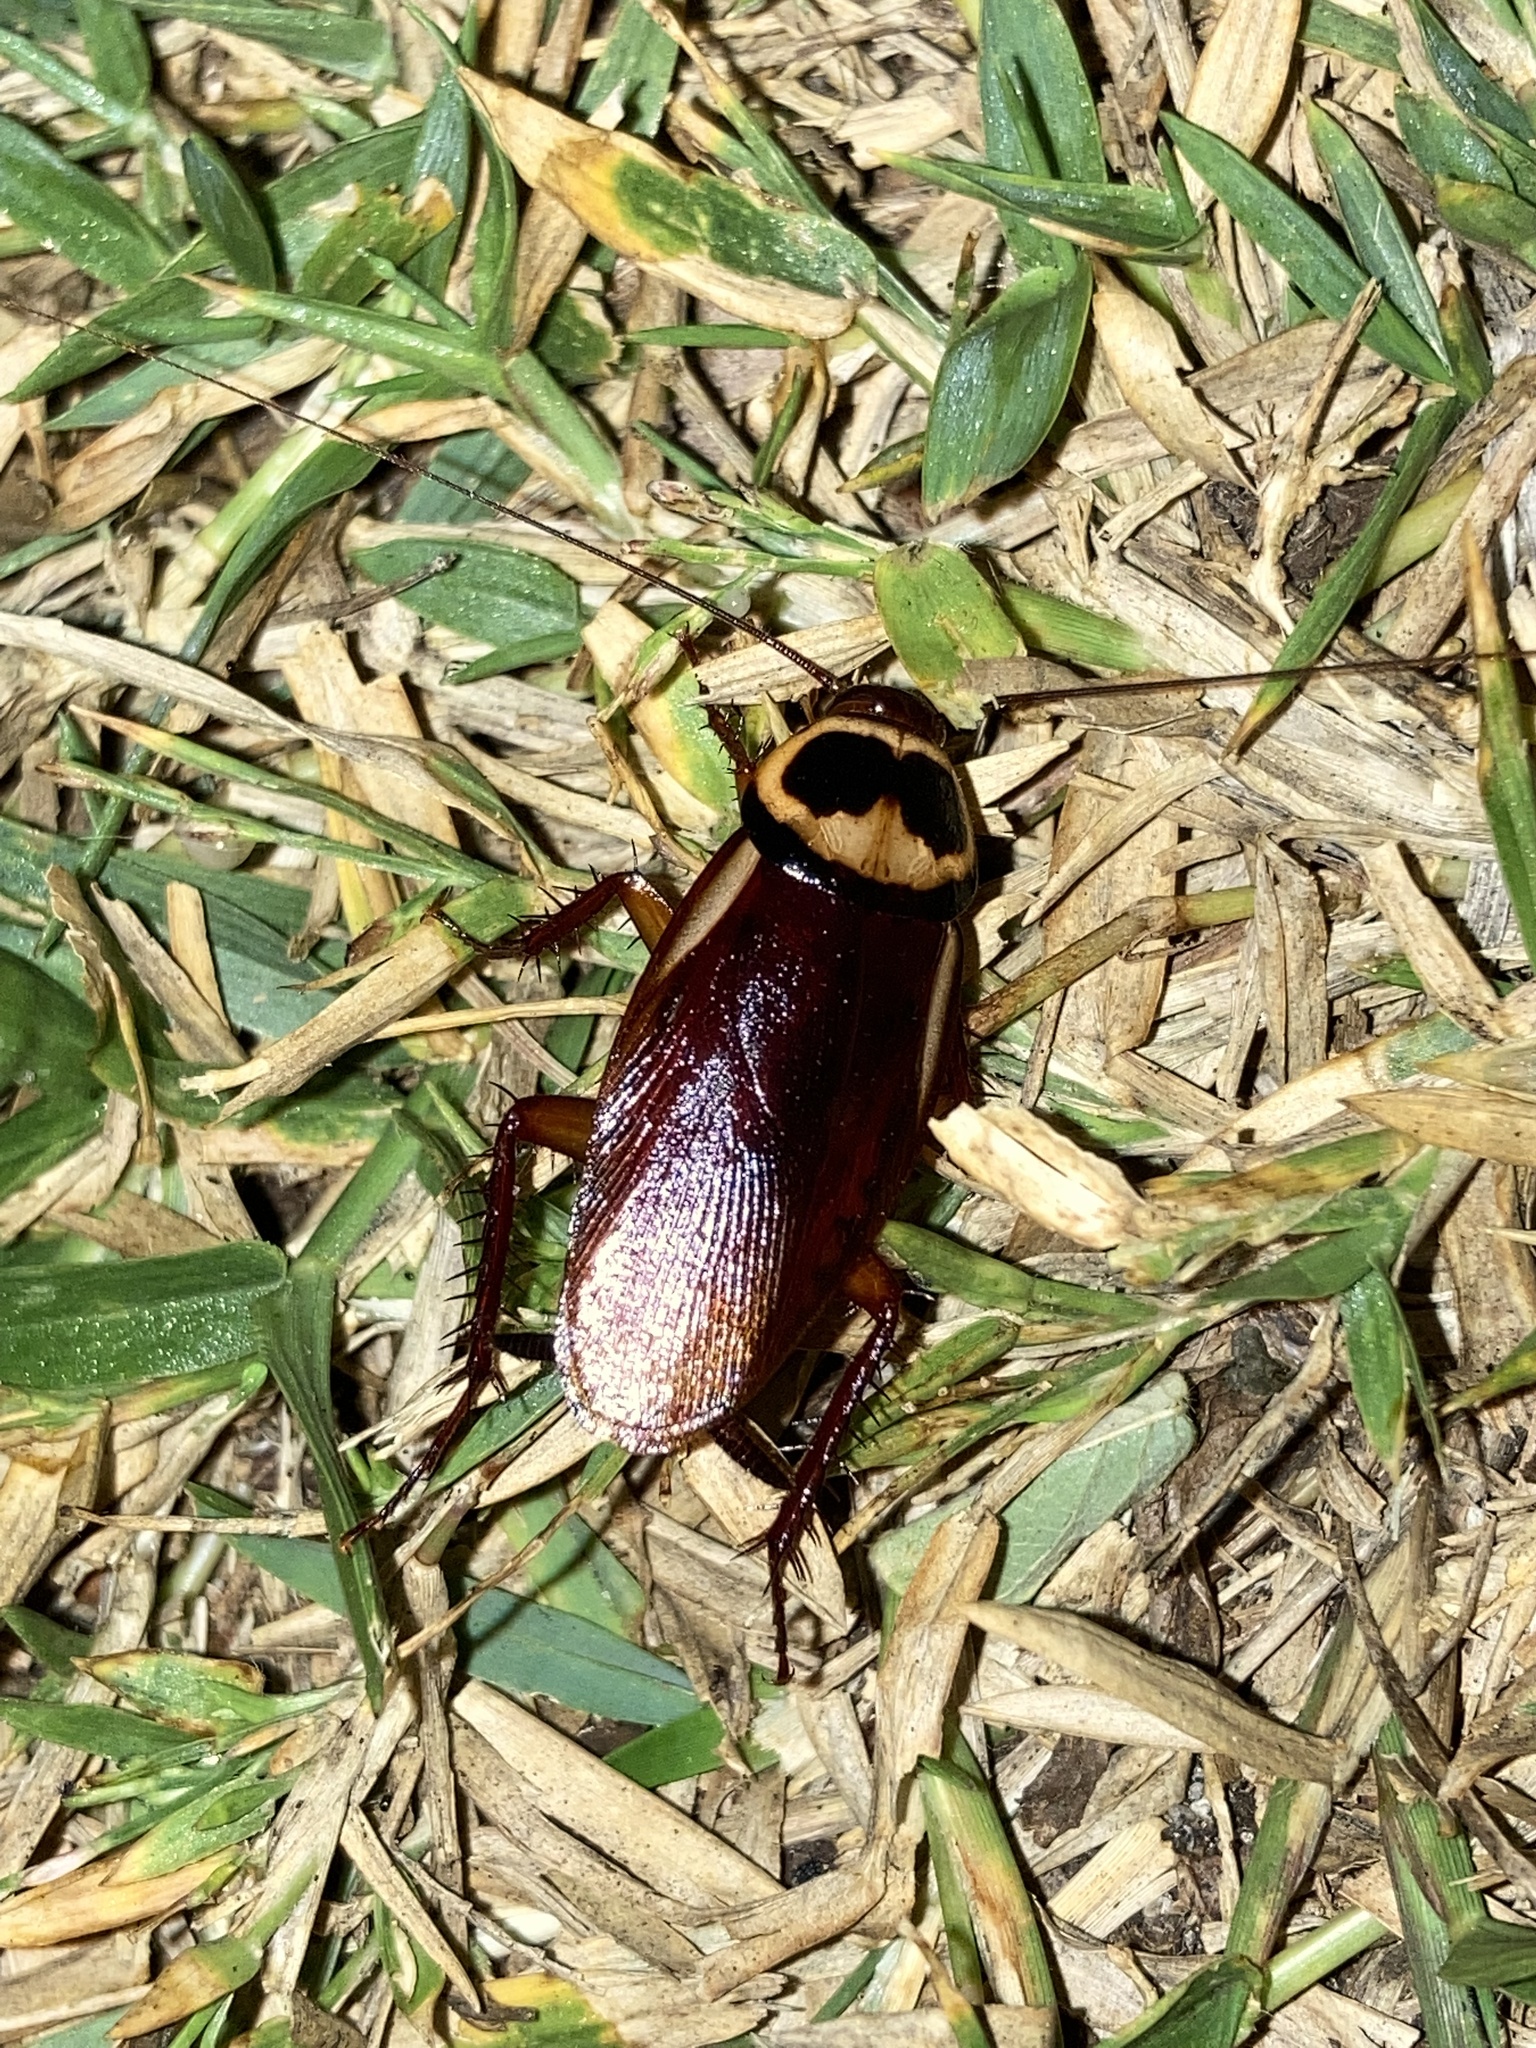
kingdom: Animalia
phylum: Arthropoda
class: Insecta
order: Blattodea
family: Blattidae
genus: Periplaneta
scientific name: Periplaneta australasiae
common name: Australian cockroach
